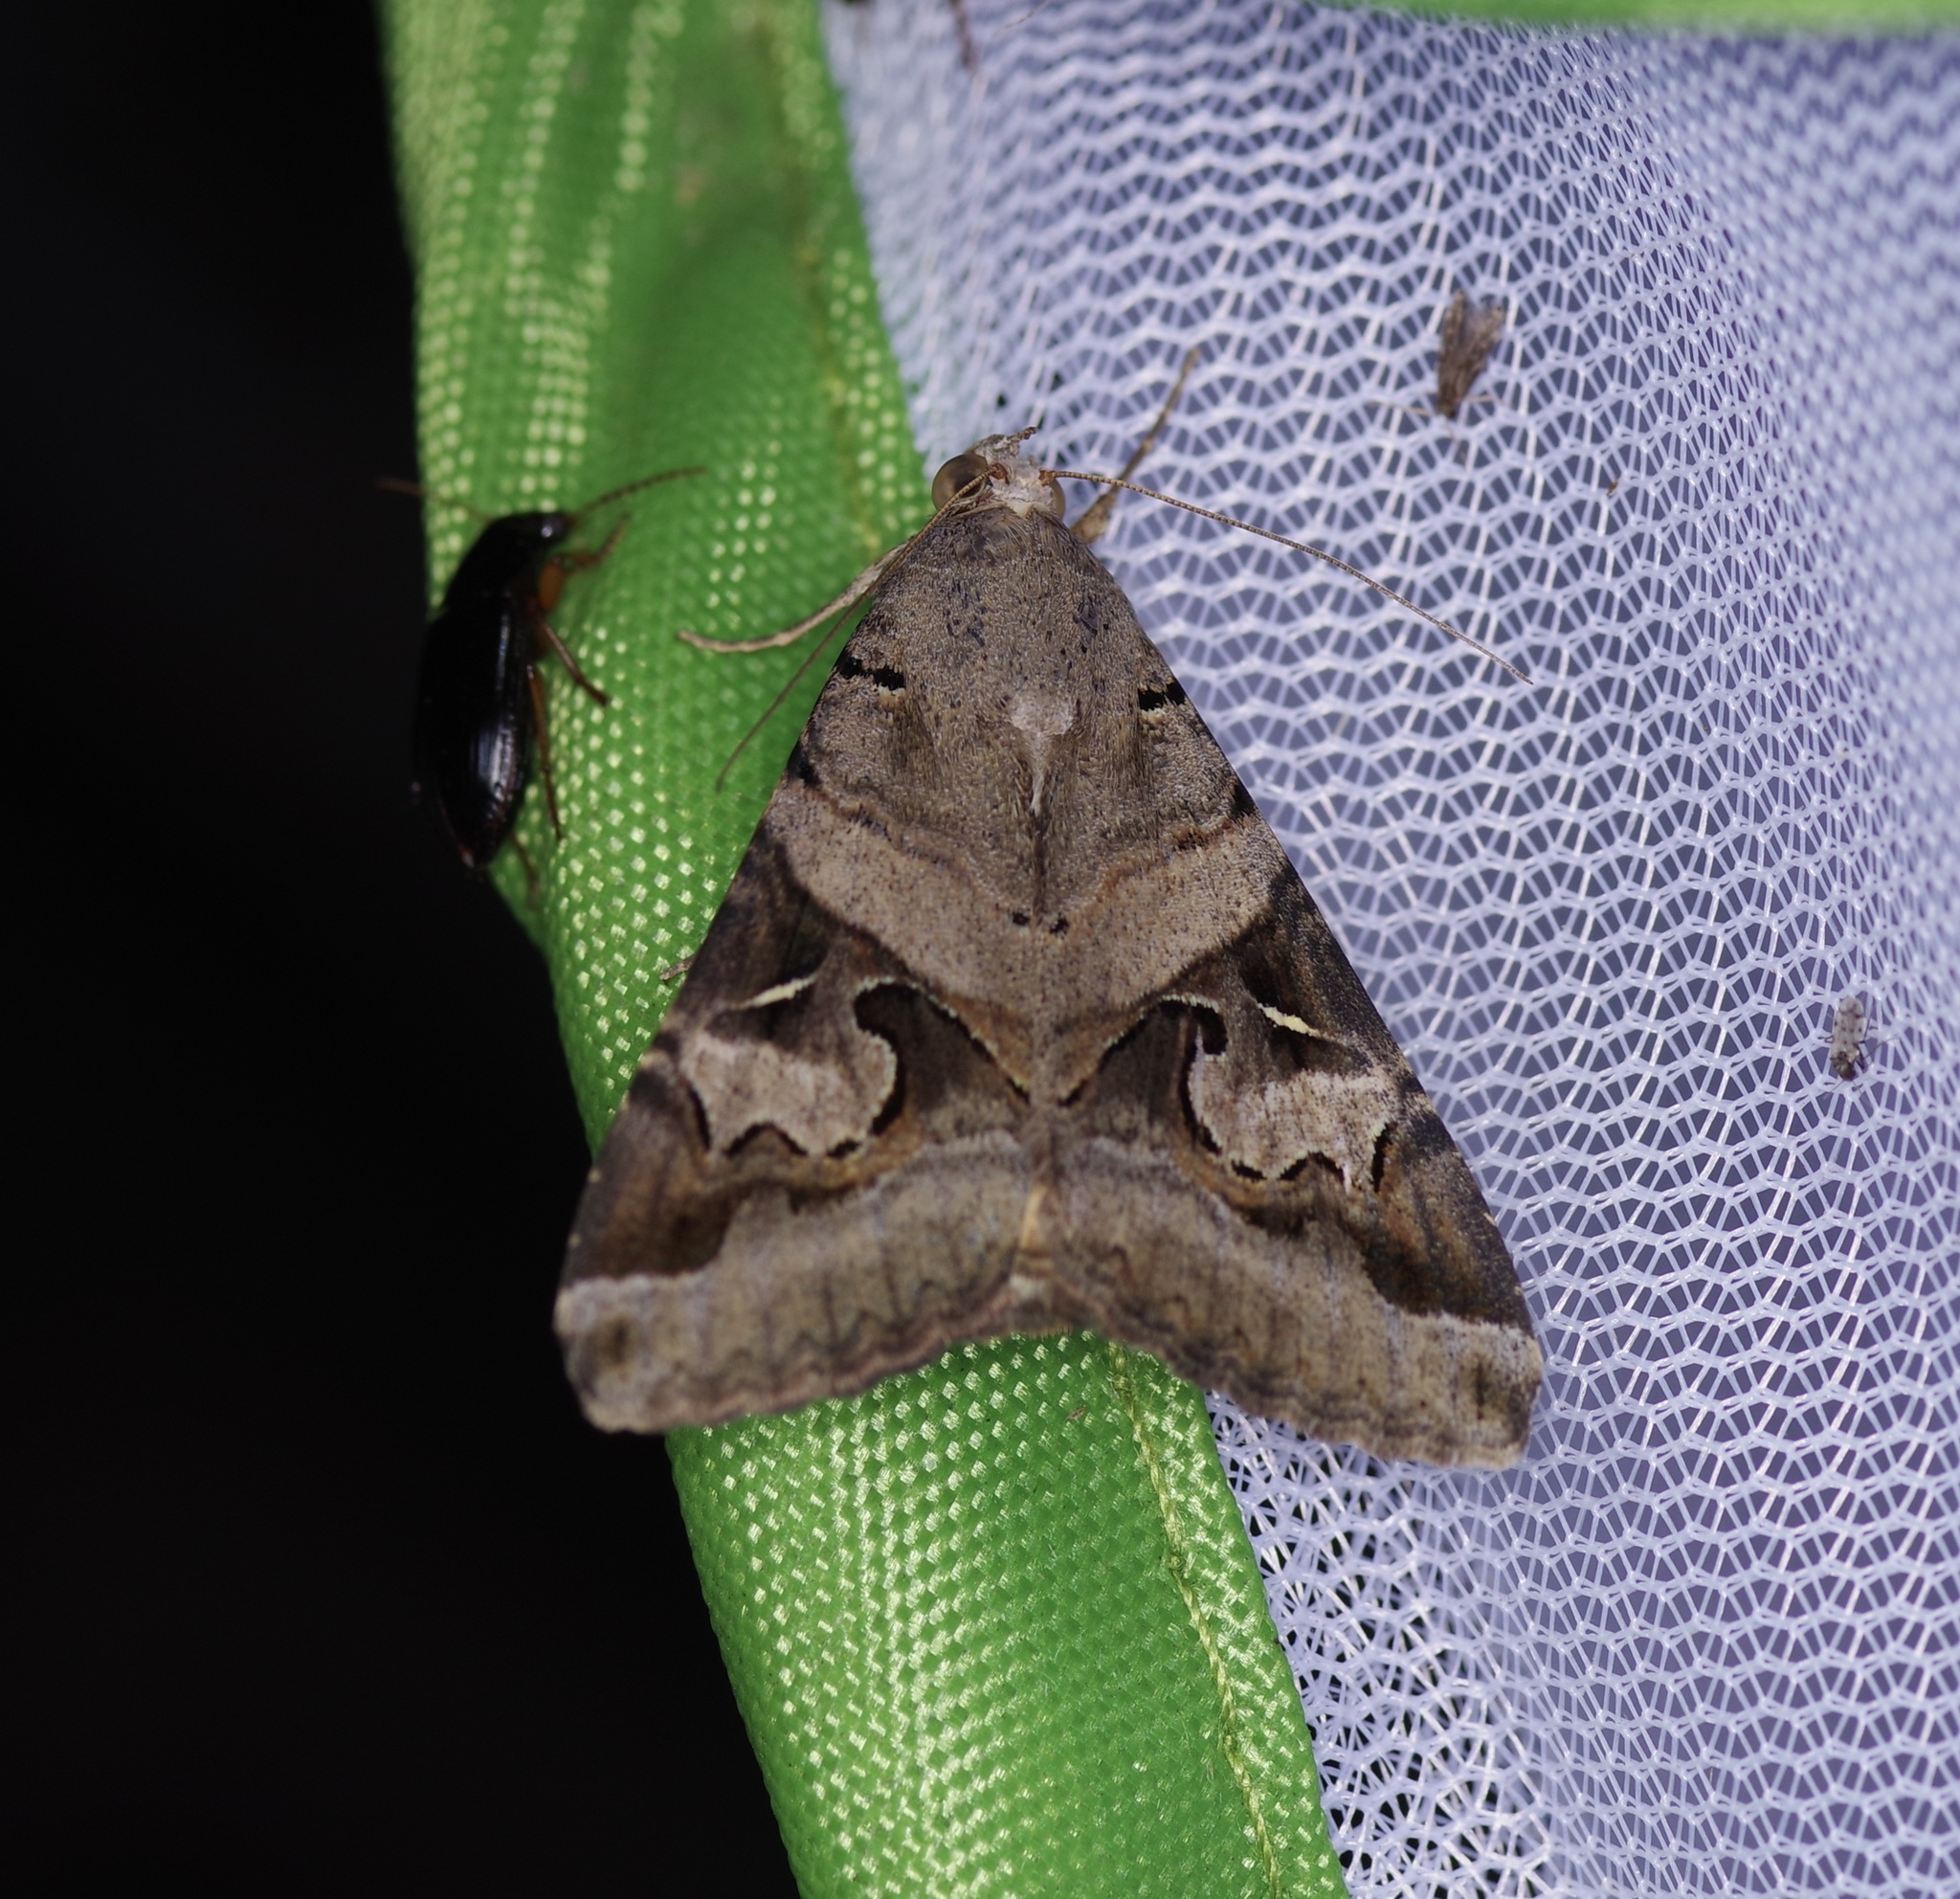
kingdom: Animalia
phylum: Arthropoda
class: Insecta
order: Lepidoptera
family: Erebidae
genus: Melipotis
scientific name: Melipotis indomita
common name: Moth
